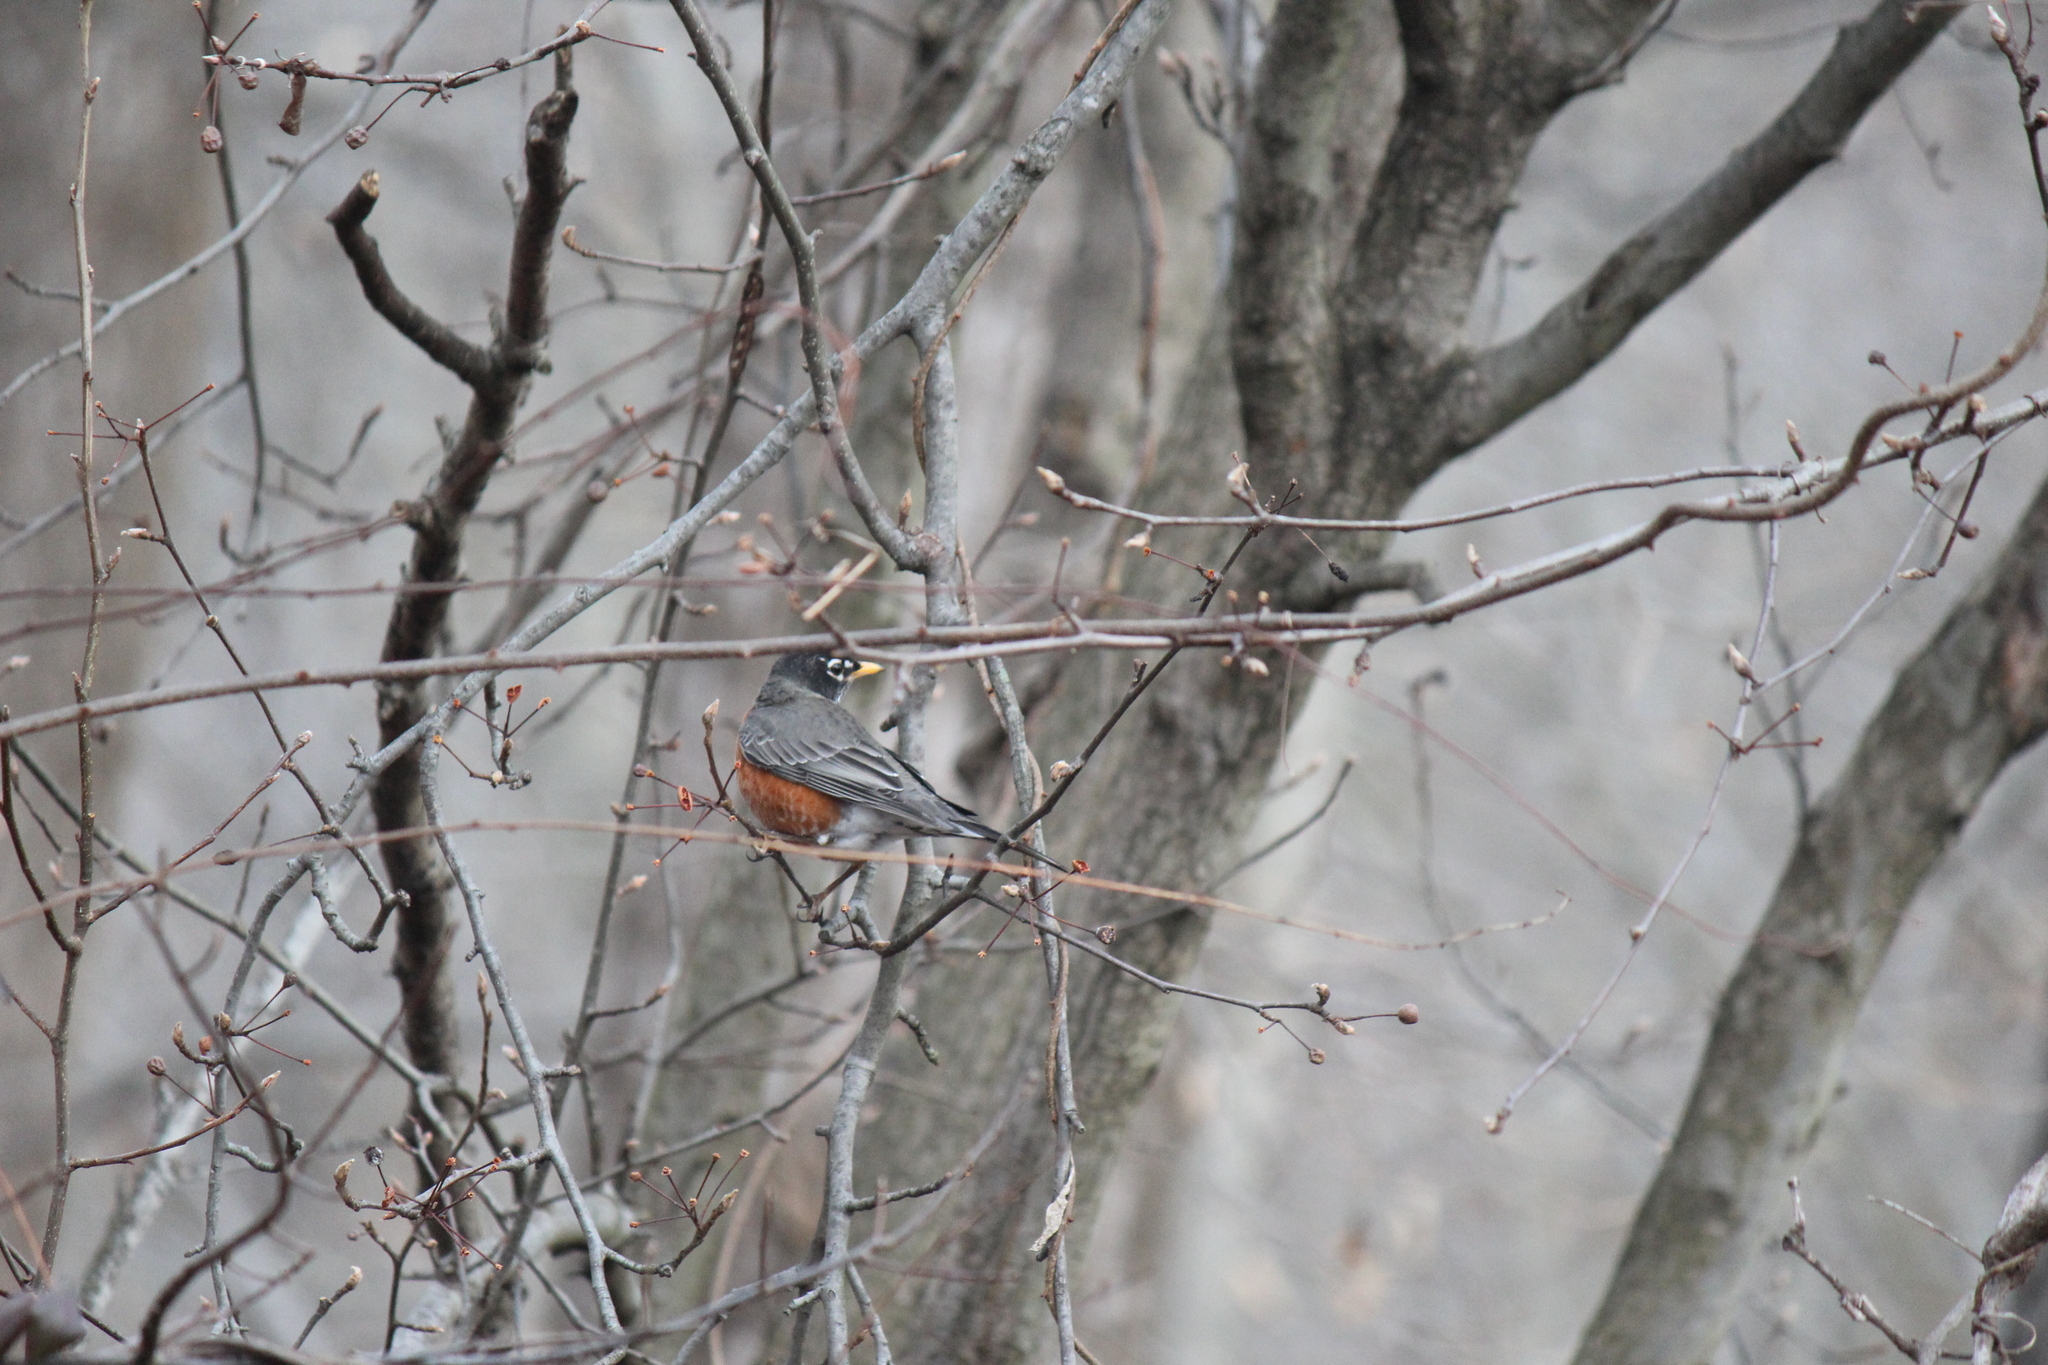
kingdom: Animalia
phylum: Chordata
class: Aves
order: Passeriformes
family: Turdidae
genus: Turdus
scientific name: Turdus migratorius
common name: American robin
